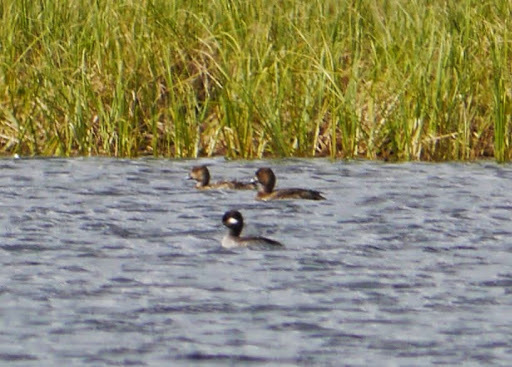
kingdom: Animalia
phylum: Chordata
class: Aves
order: Anseriformes
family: Anatidae
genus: Bucephala
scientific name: Bucephala albeola
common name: Bufflehead
